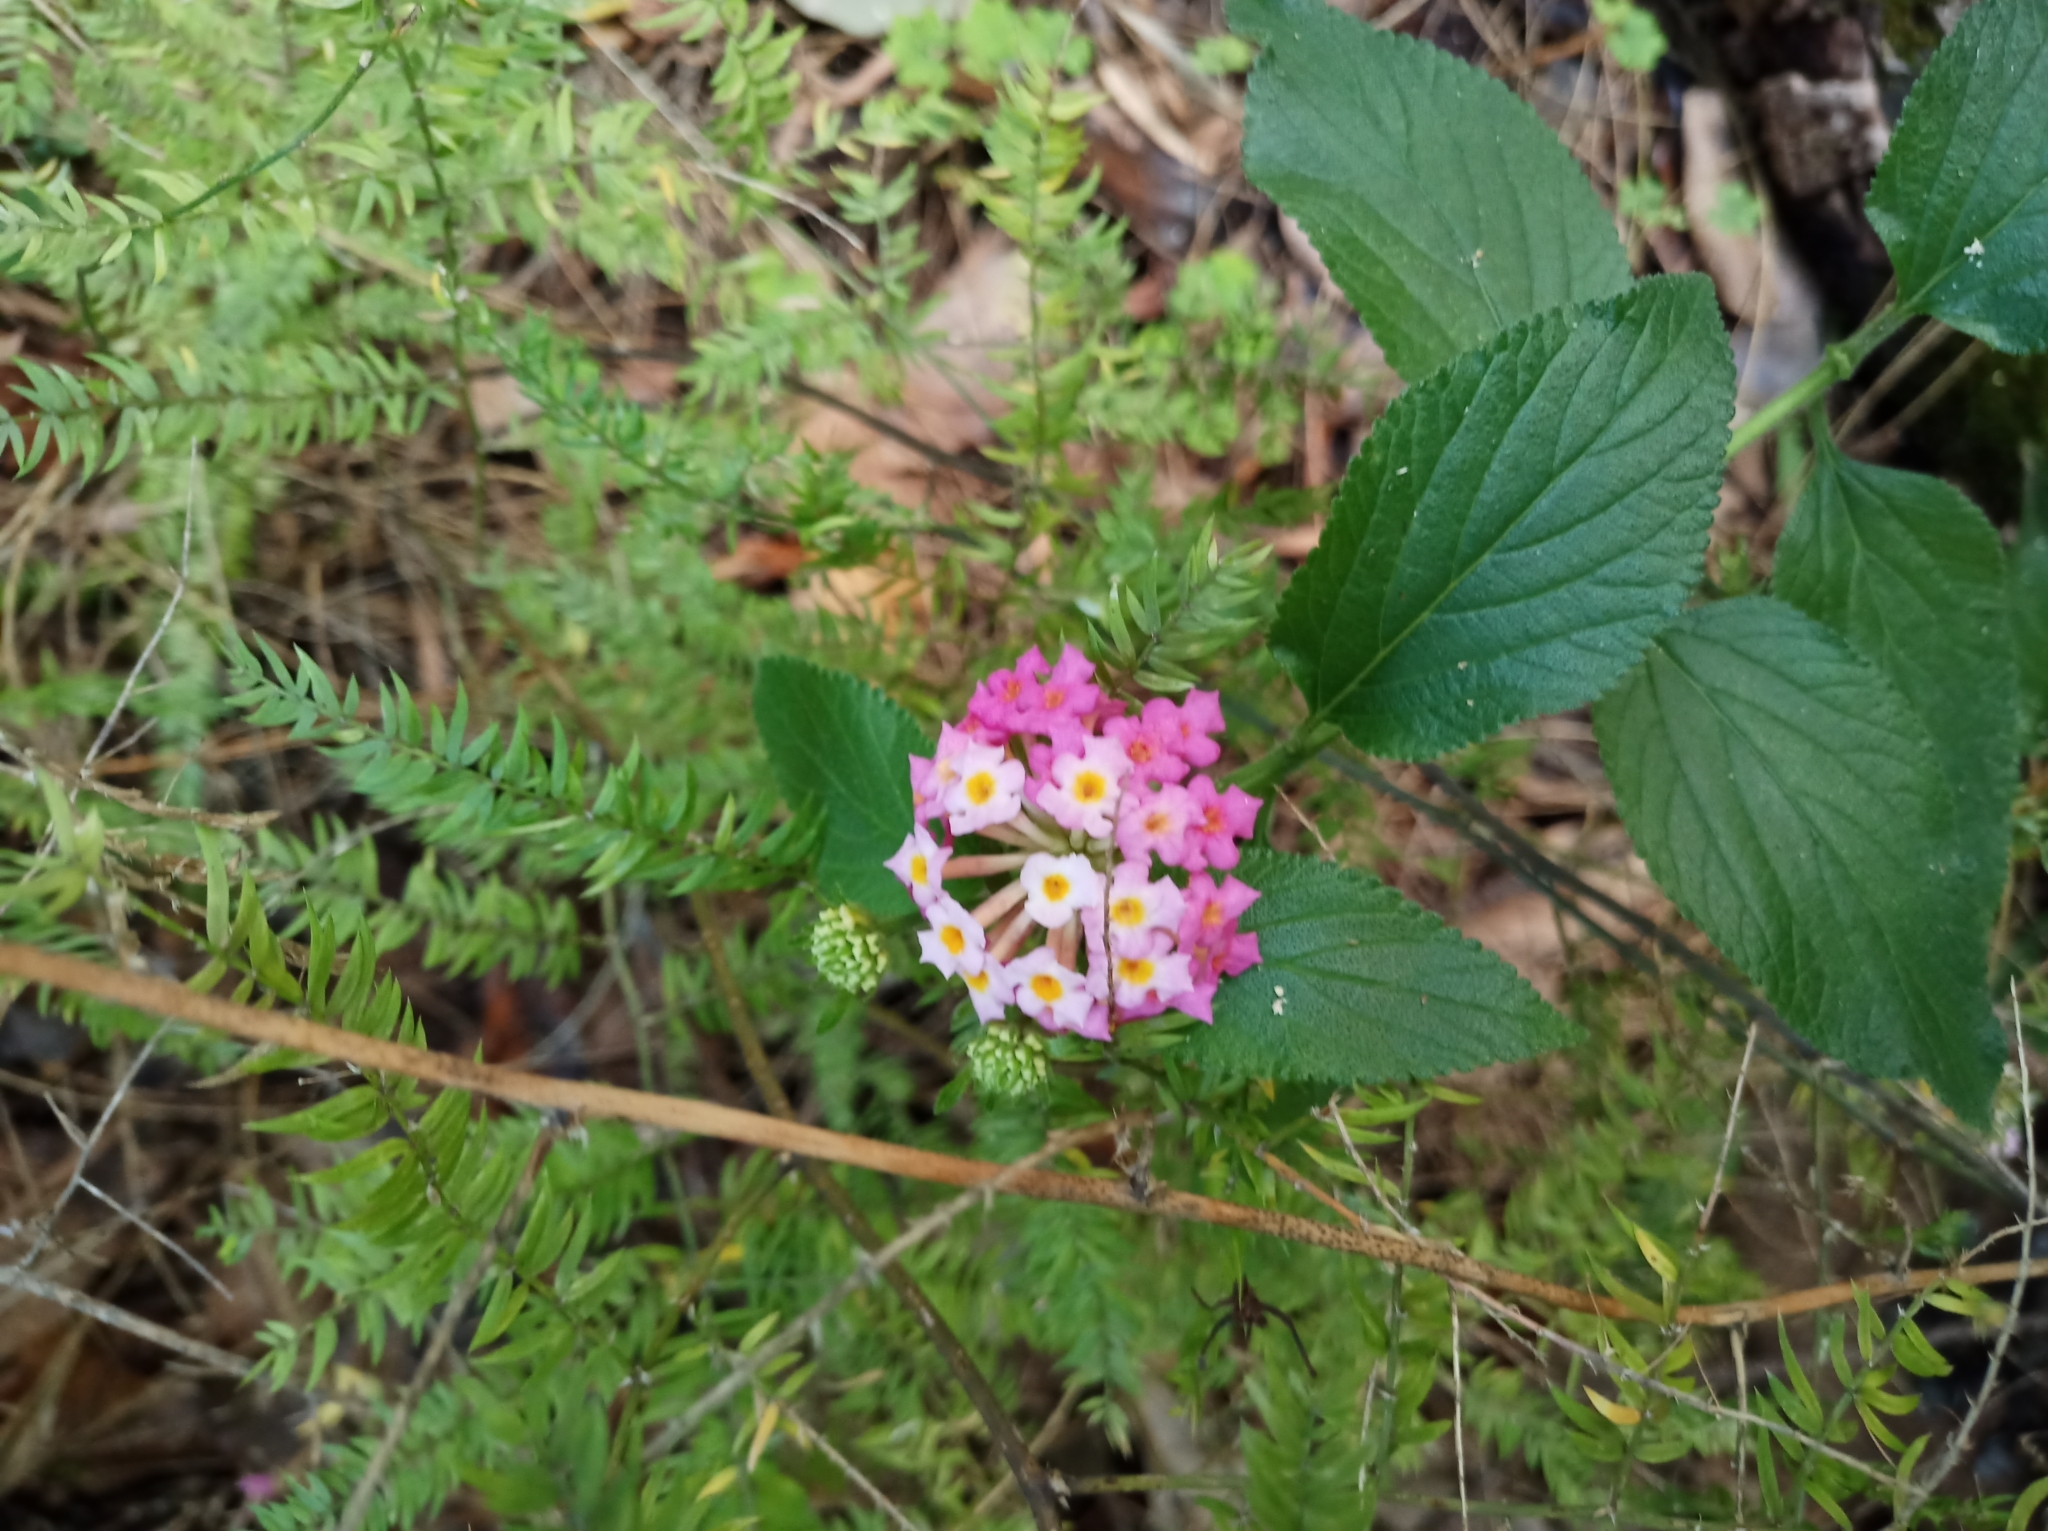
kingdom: Plantae
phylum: Tracheophyta
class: Magnoliopsida
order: Lamiales
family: Verbenaceae
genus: Lantana
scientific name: Lantana camara
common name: Lantana
